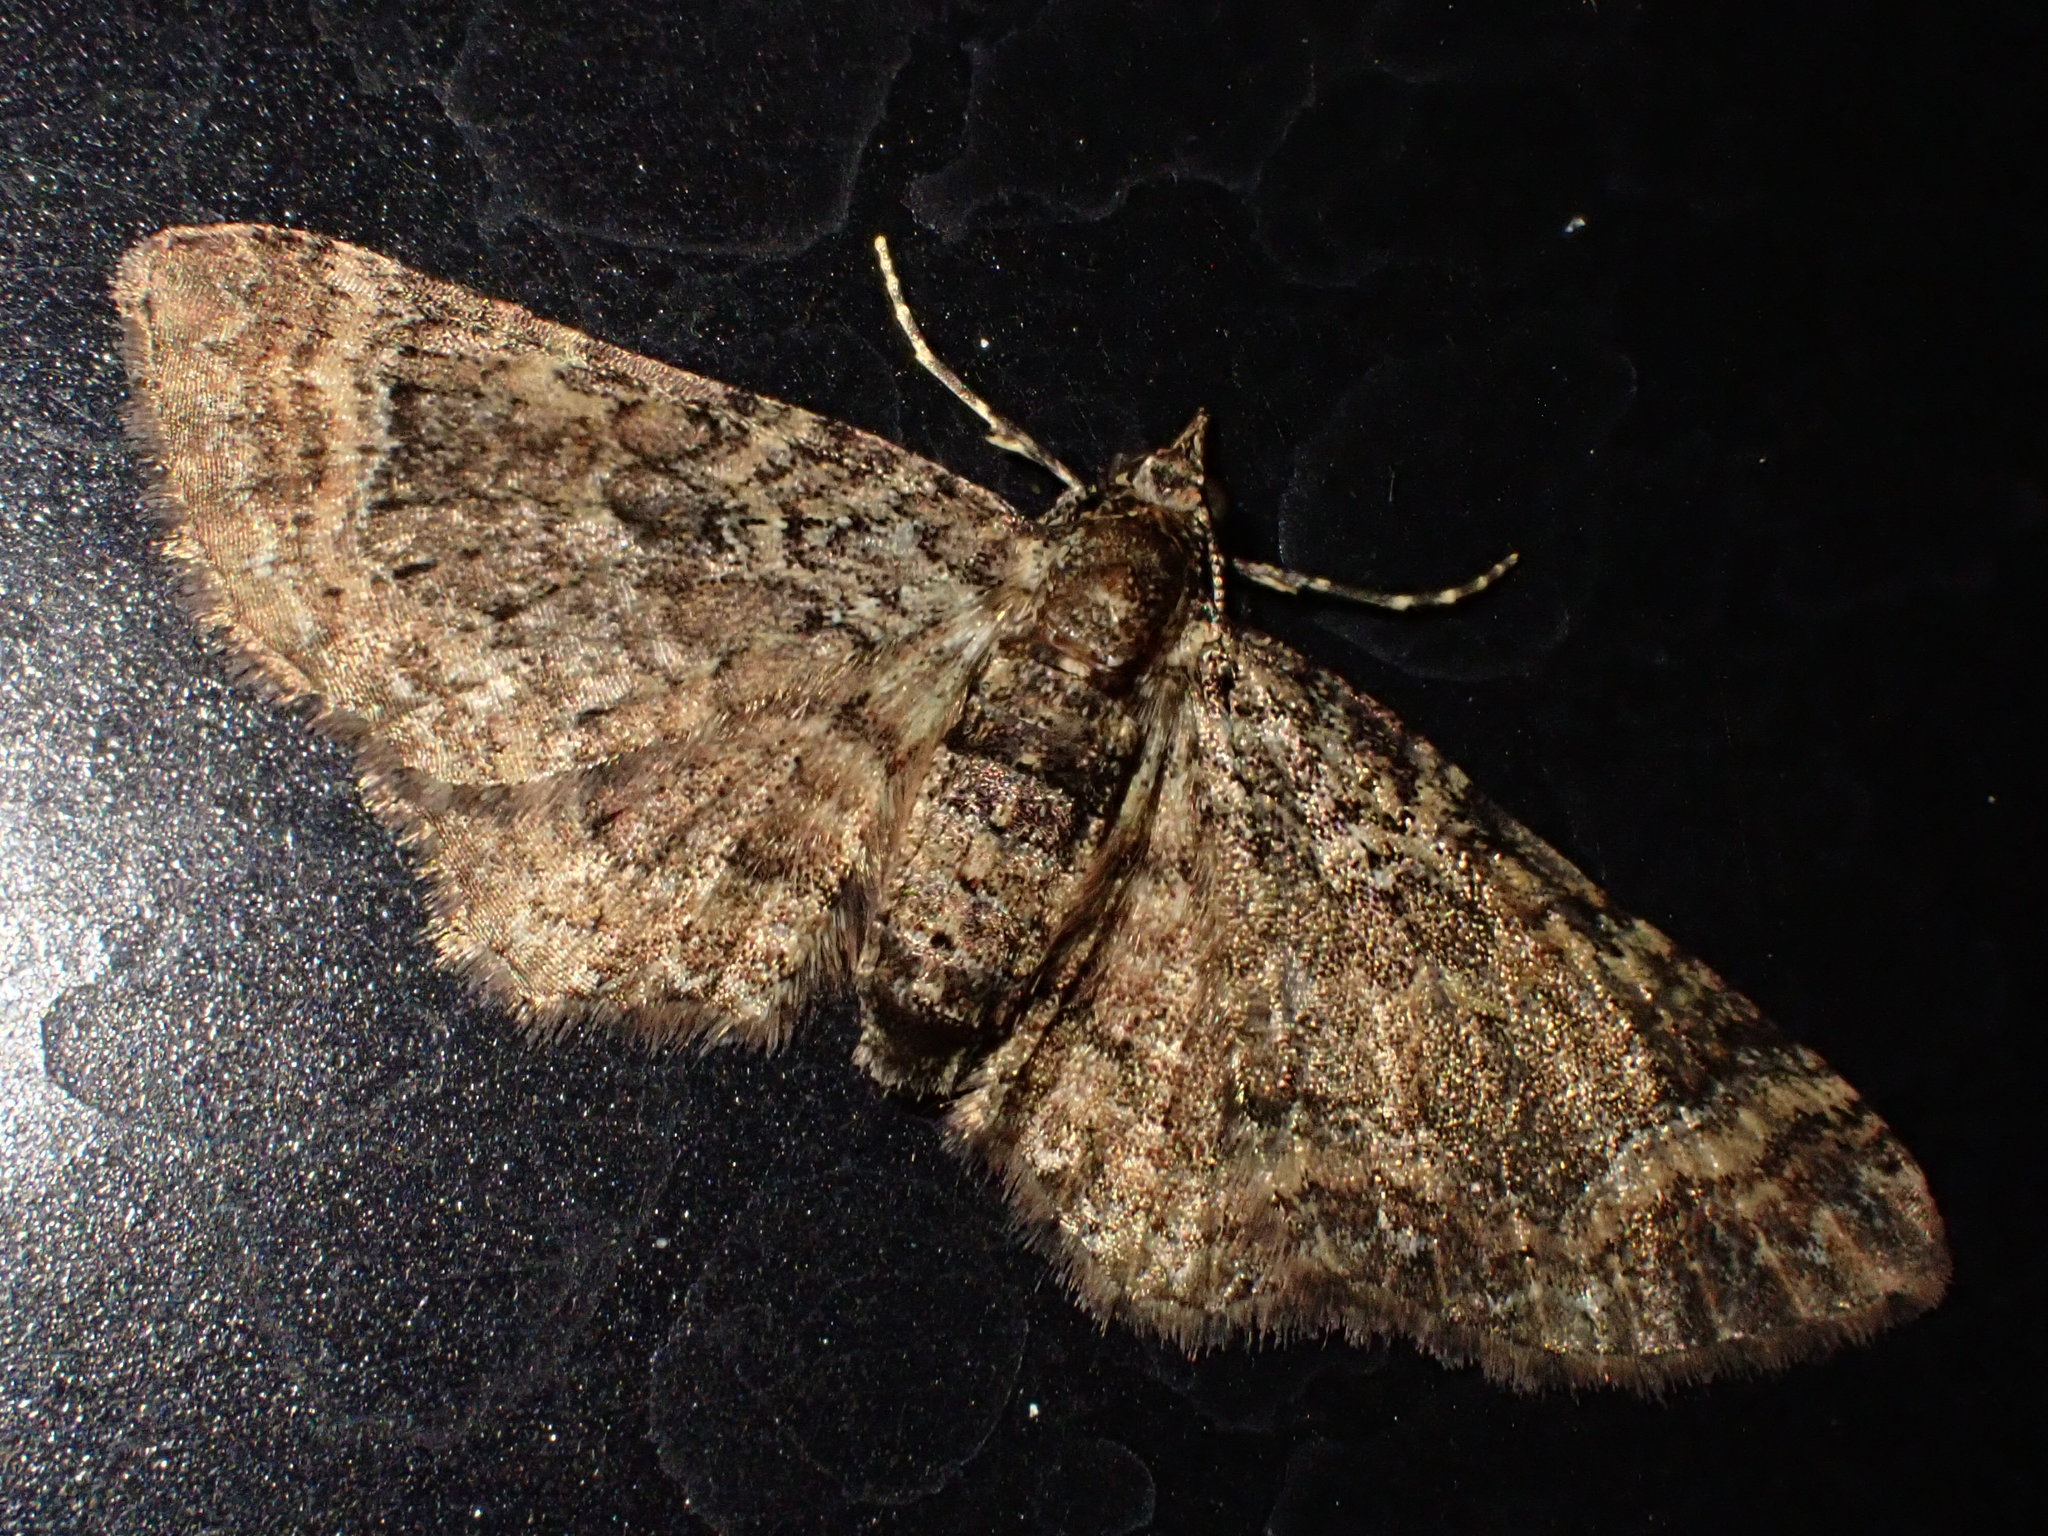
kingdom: Animalia
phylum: Arthropoda
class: Insecta
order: Lepidoptera
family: Geometridae
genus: Pasiphila
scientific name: Pasiphila lunata
